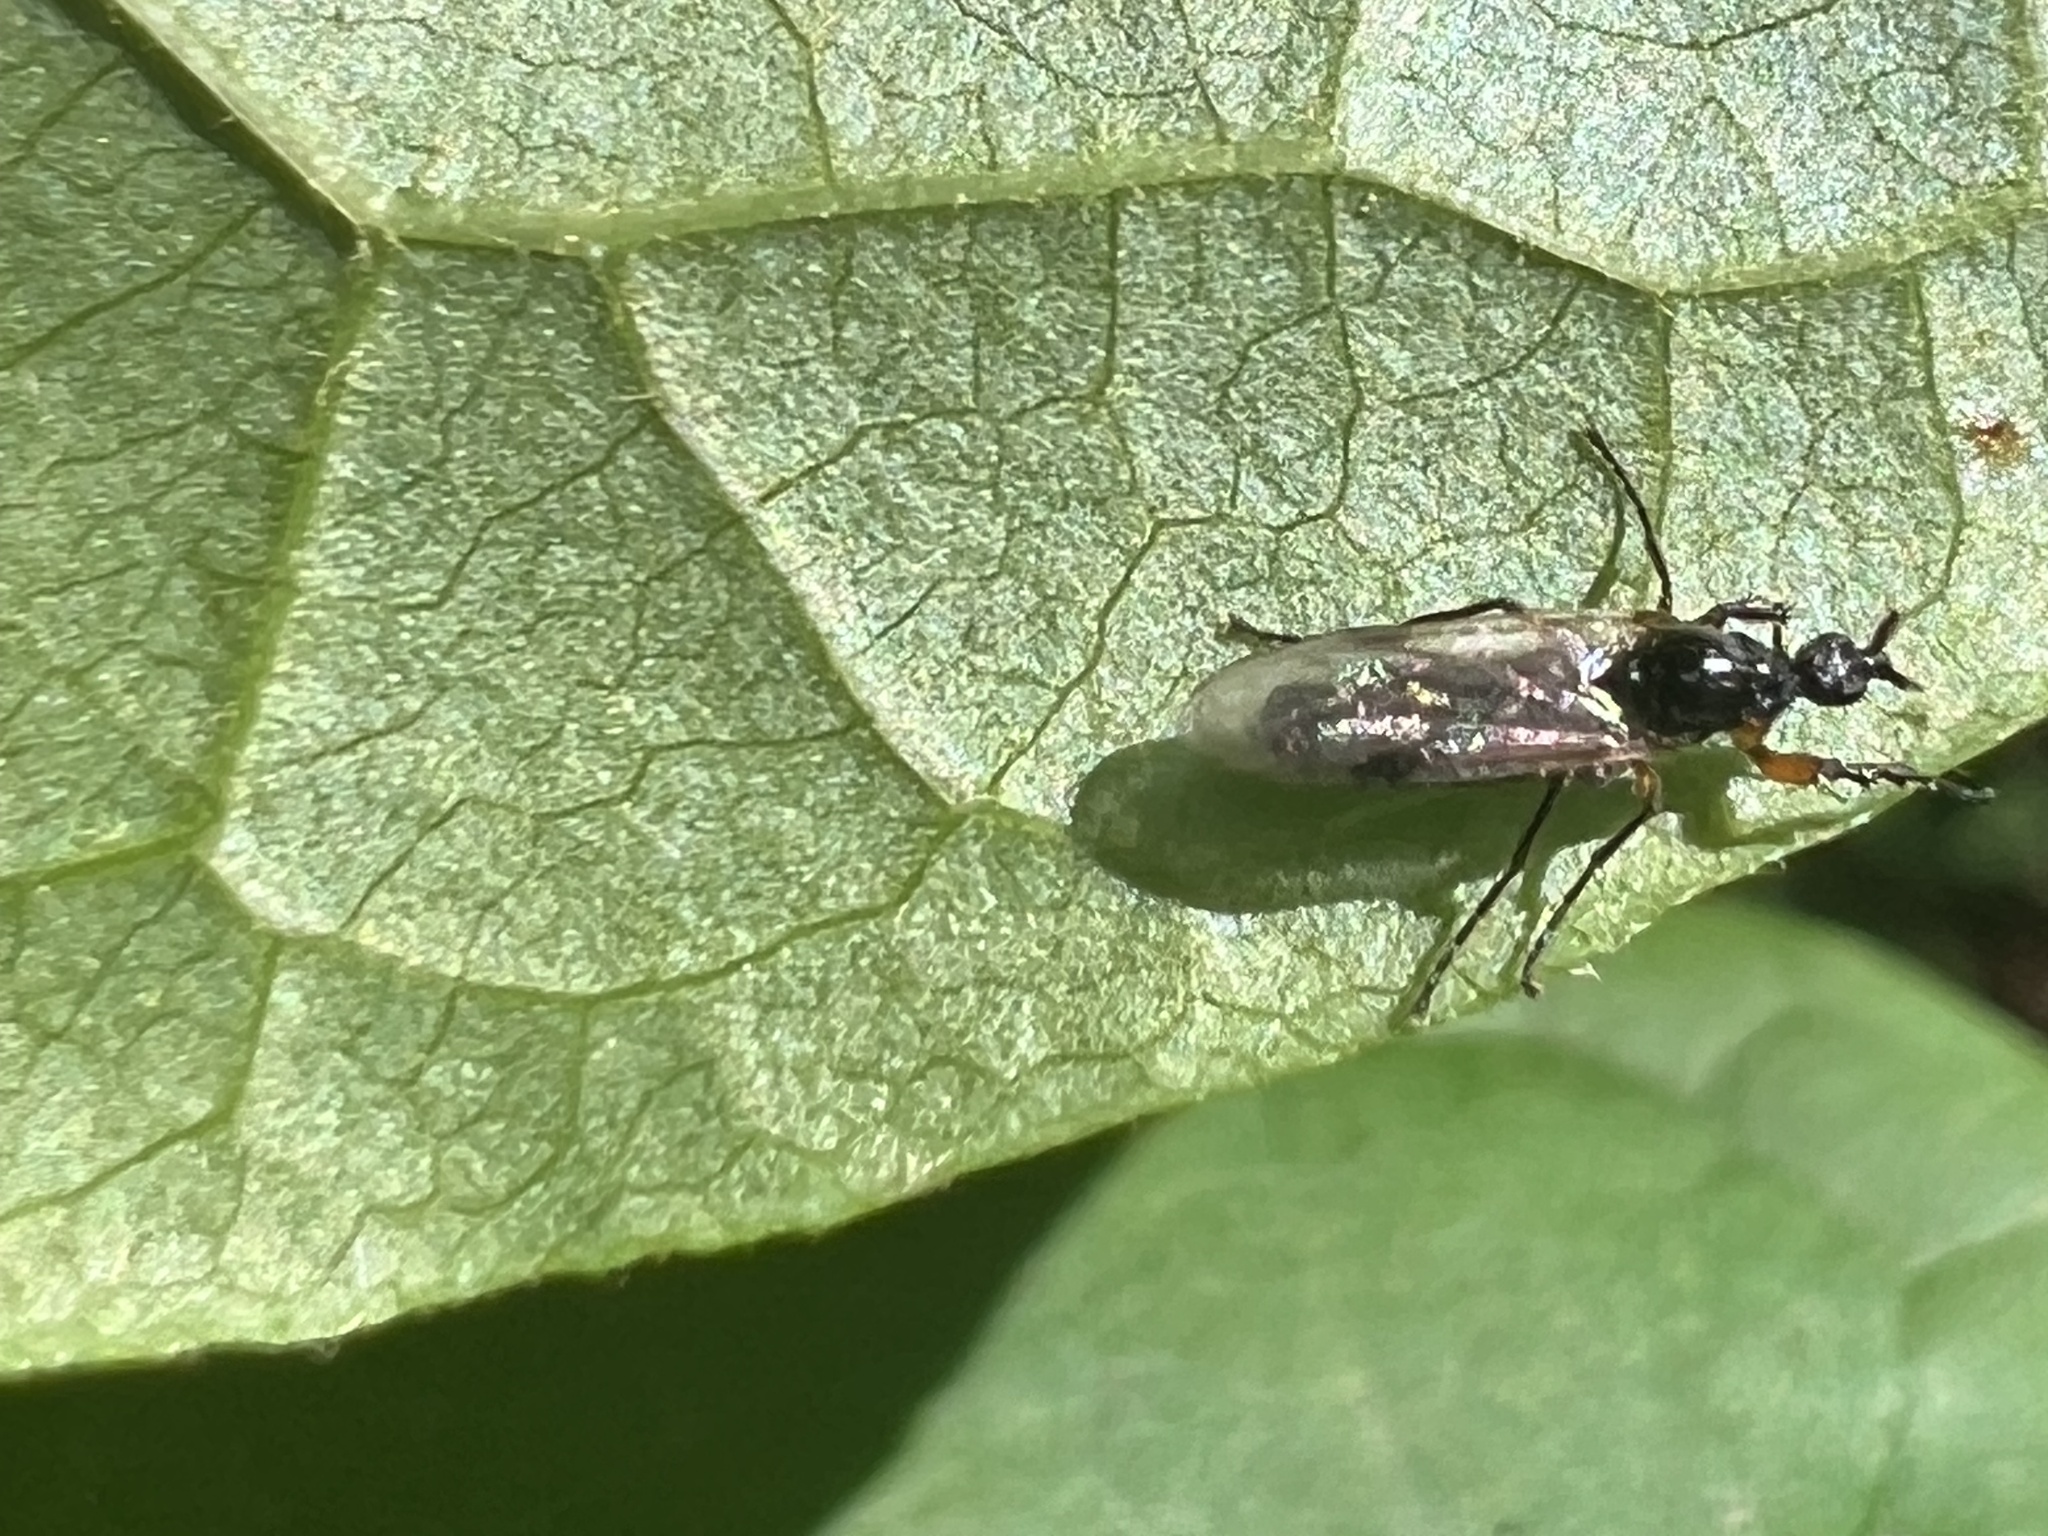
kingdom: Animalia
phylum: Arthropoda
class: Insecta
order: Diptera
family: Bibionidae
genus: Dilophus
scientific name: Dilophus
